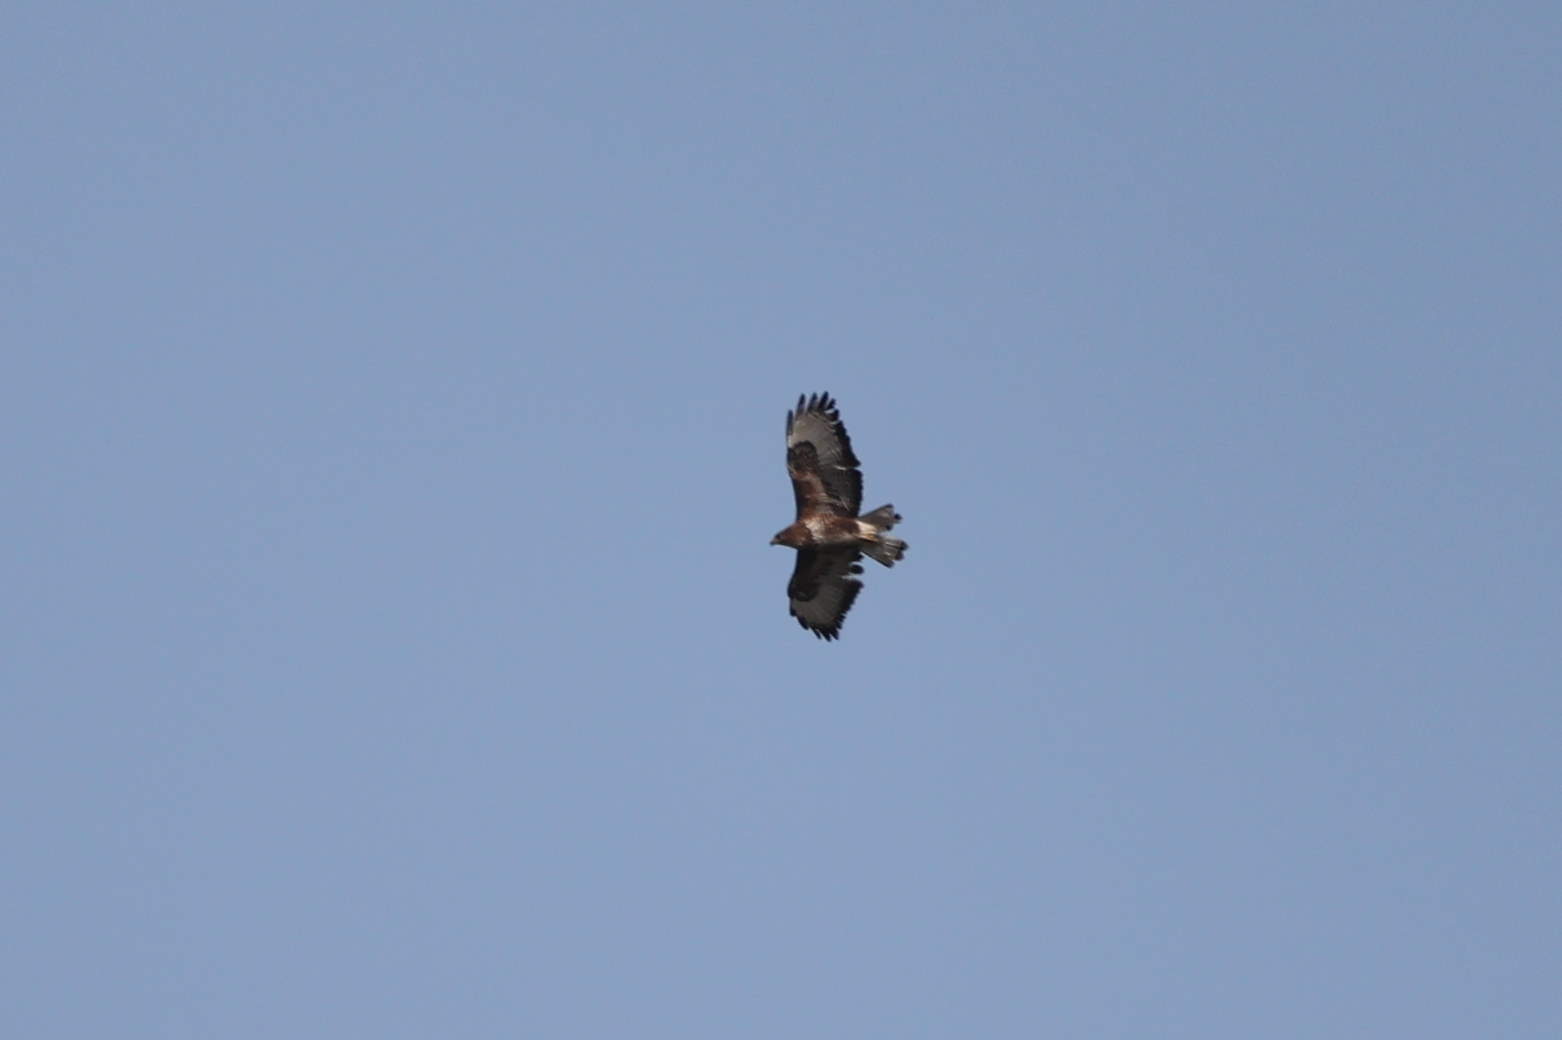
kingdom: Animalia
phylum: Chordata
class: Aves
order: Accipitriformes
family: Accipitridae
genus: Buteo
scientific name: Buteo buteo
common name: Common buzzard
